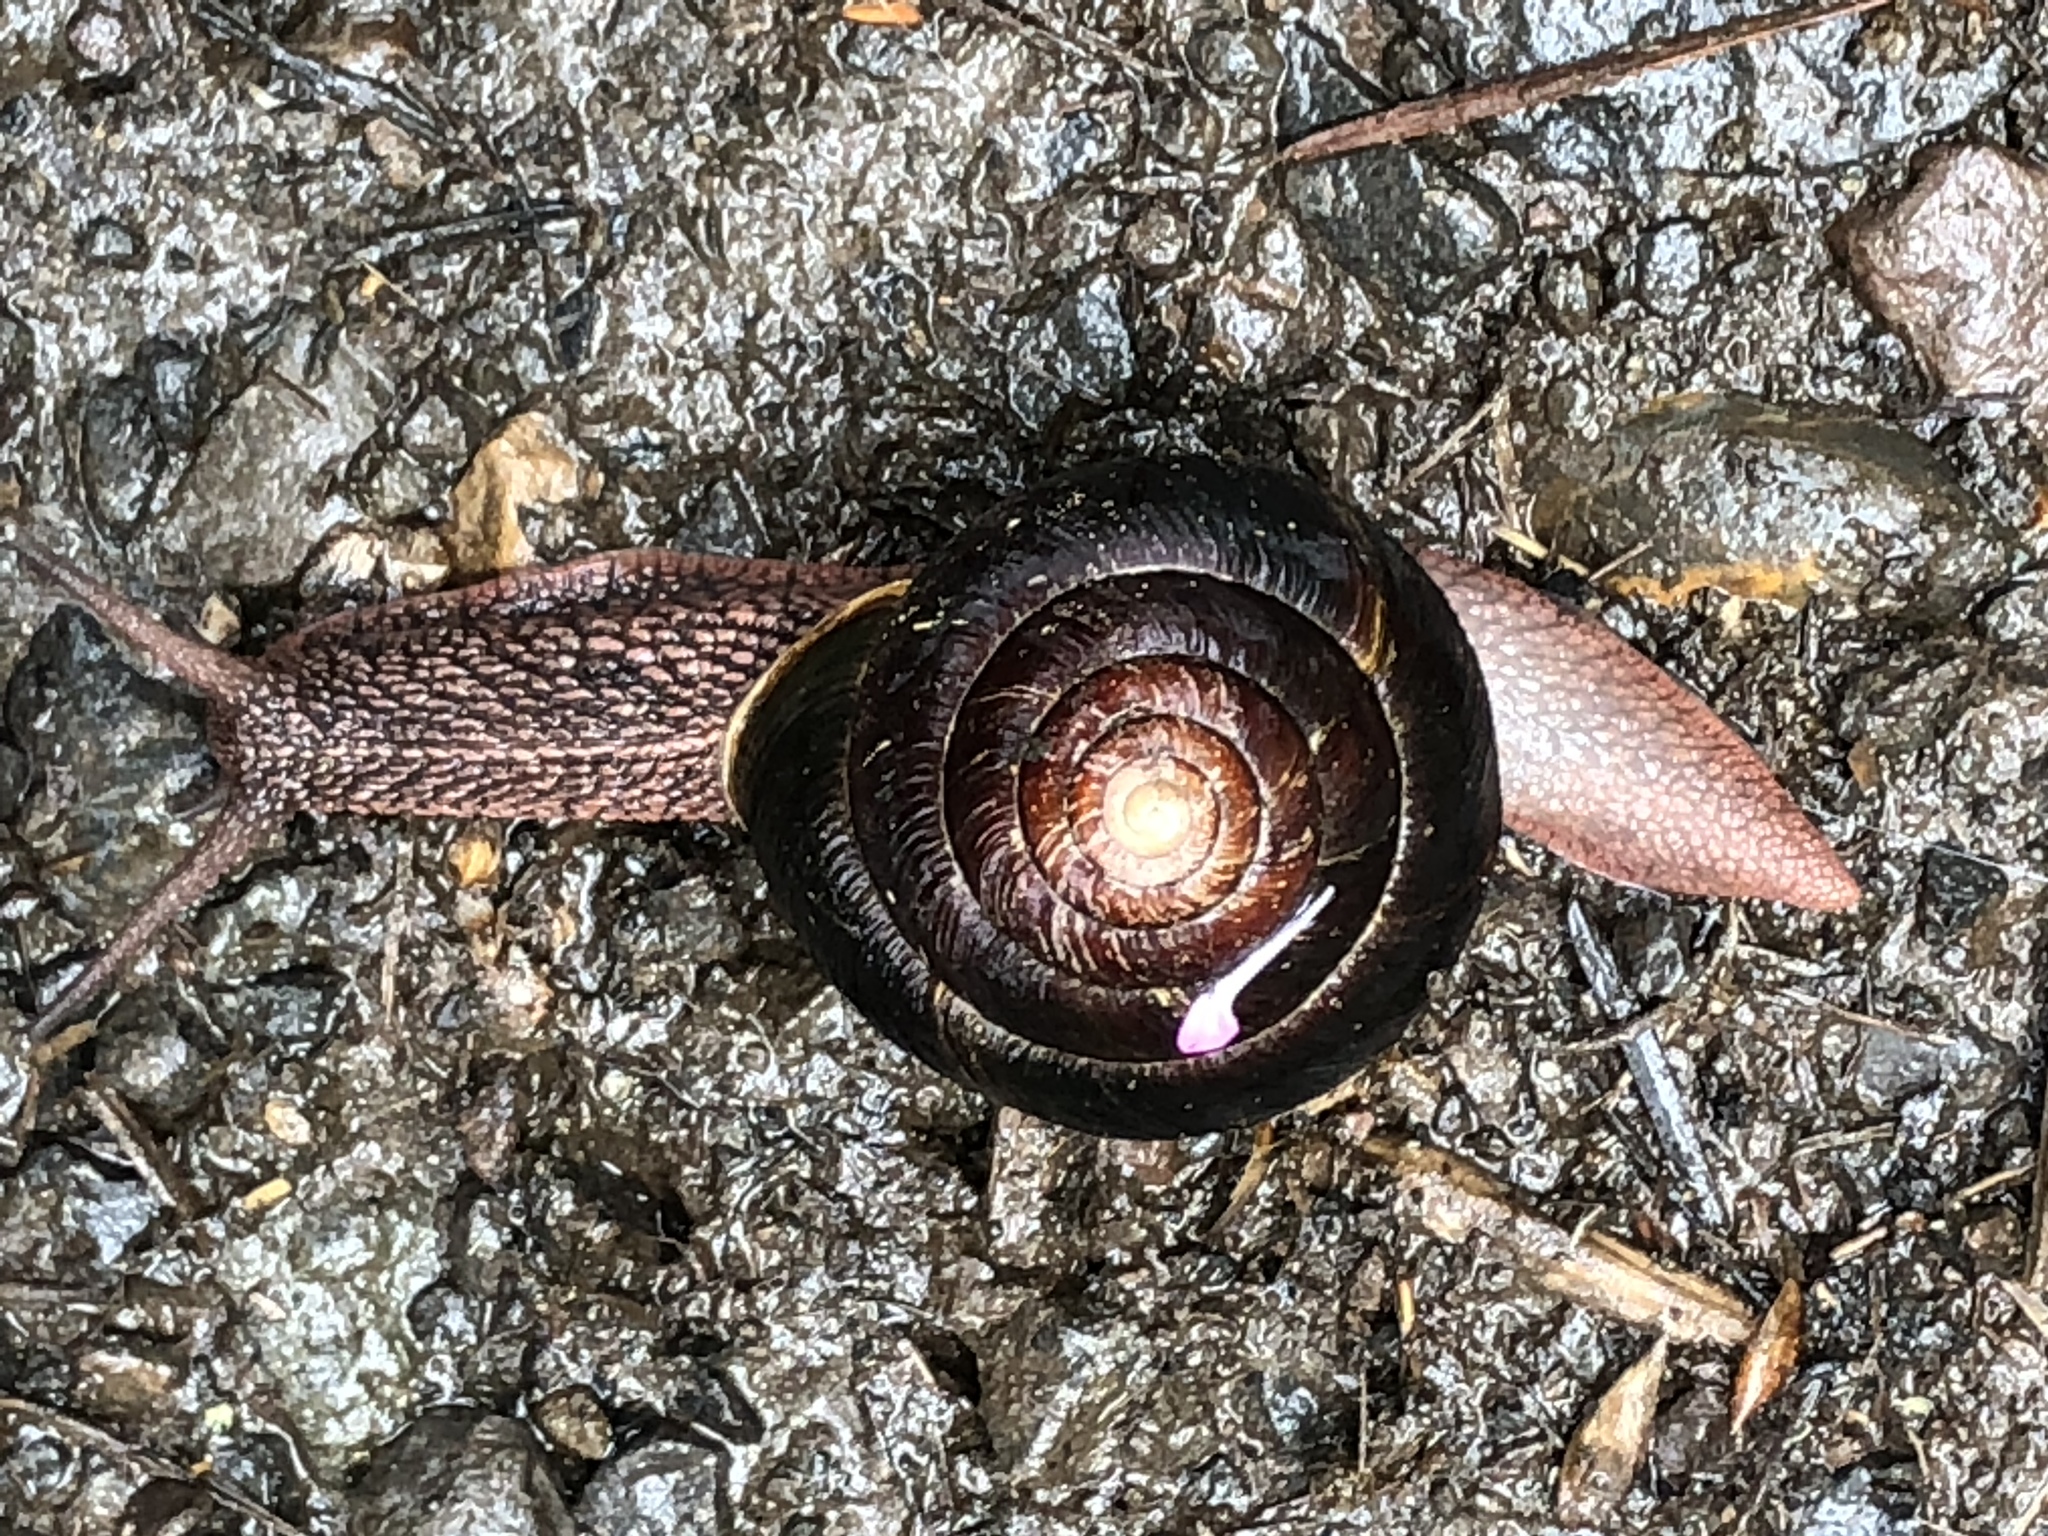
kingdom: Animalia
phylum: Mollusca
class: Gastropoda
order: Stylommatophora
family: Xanthonychidae
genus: Monadenia
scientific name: Monadenia fidelis
